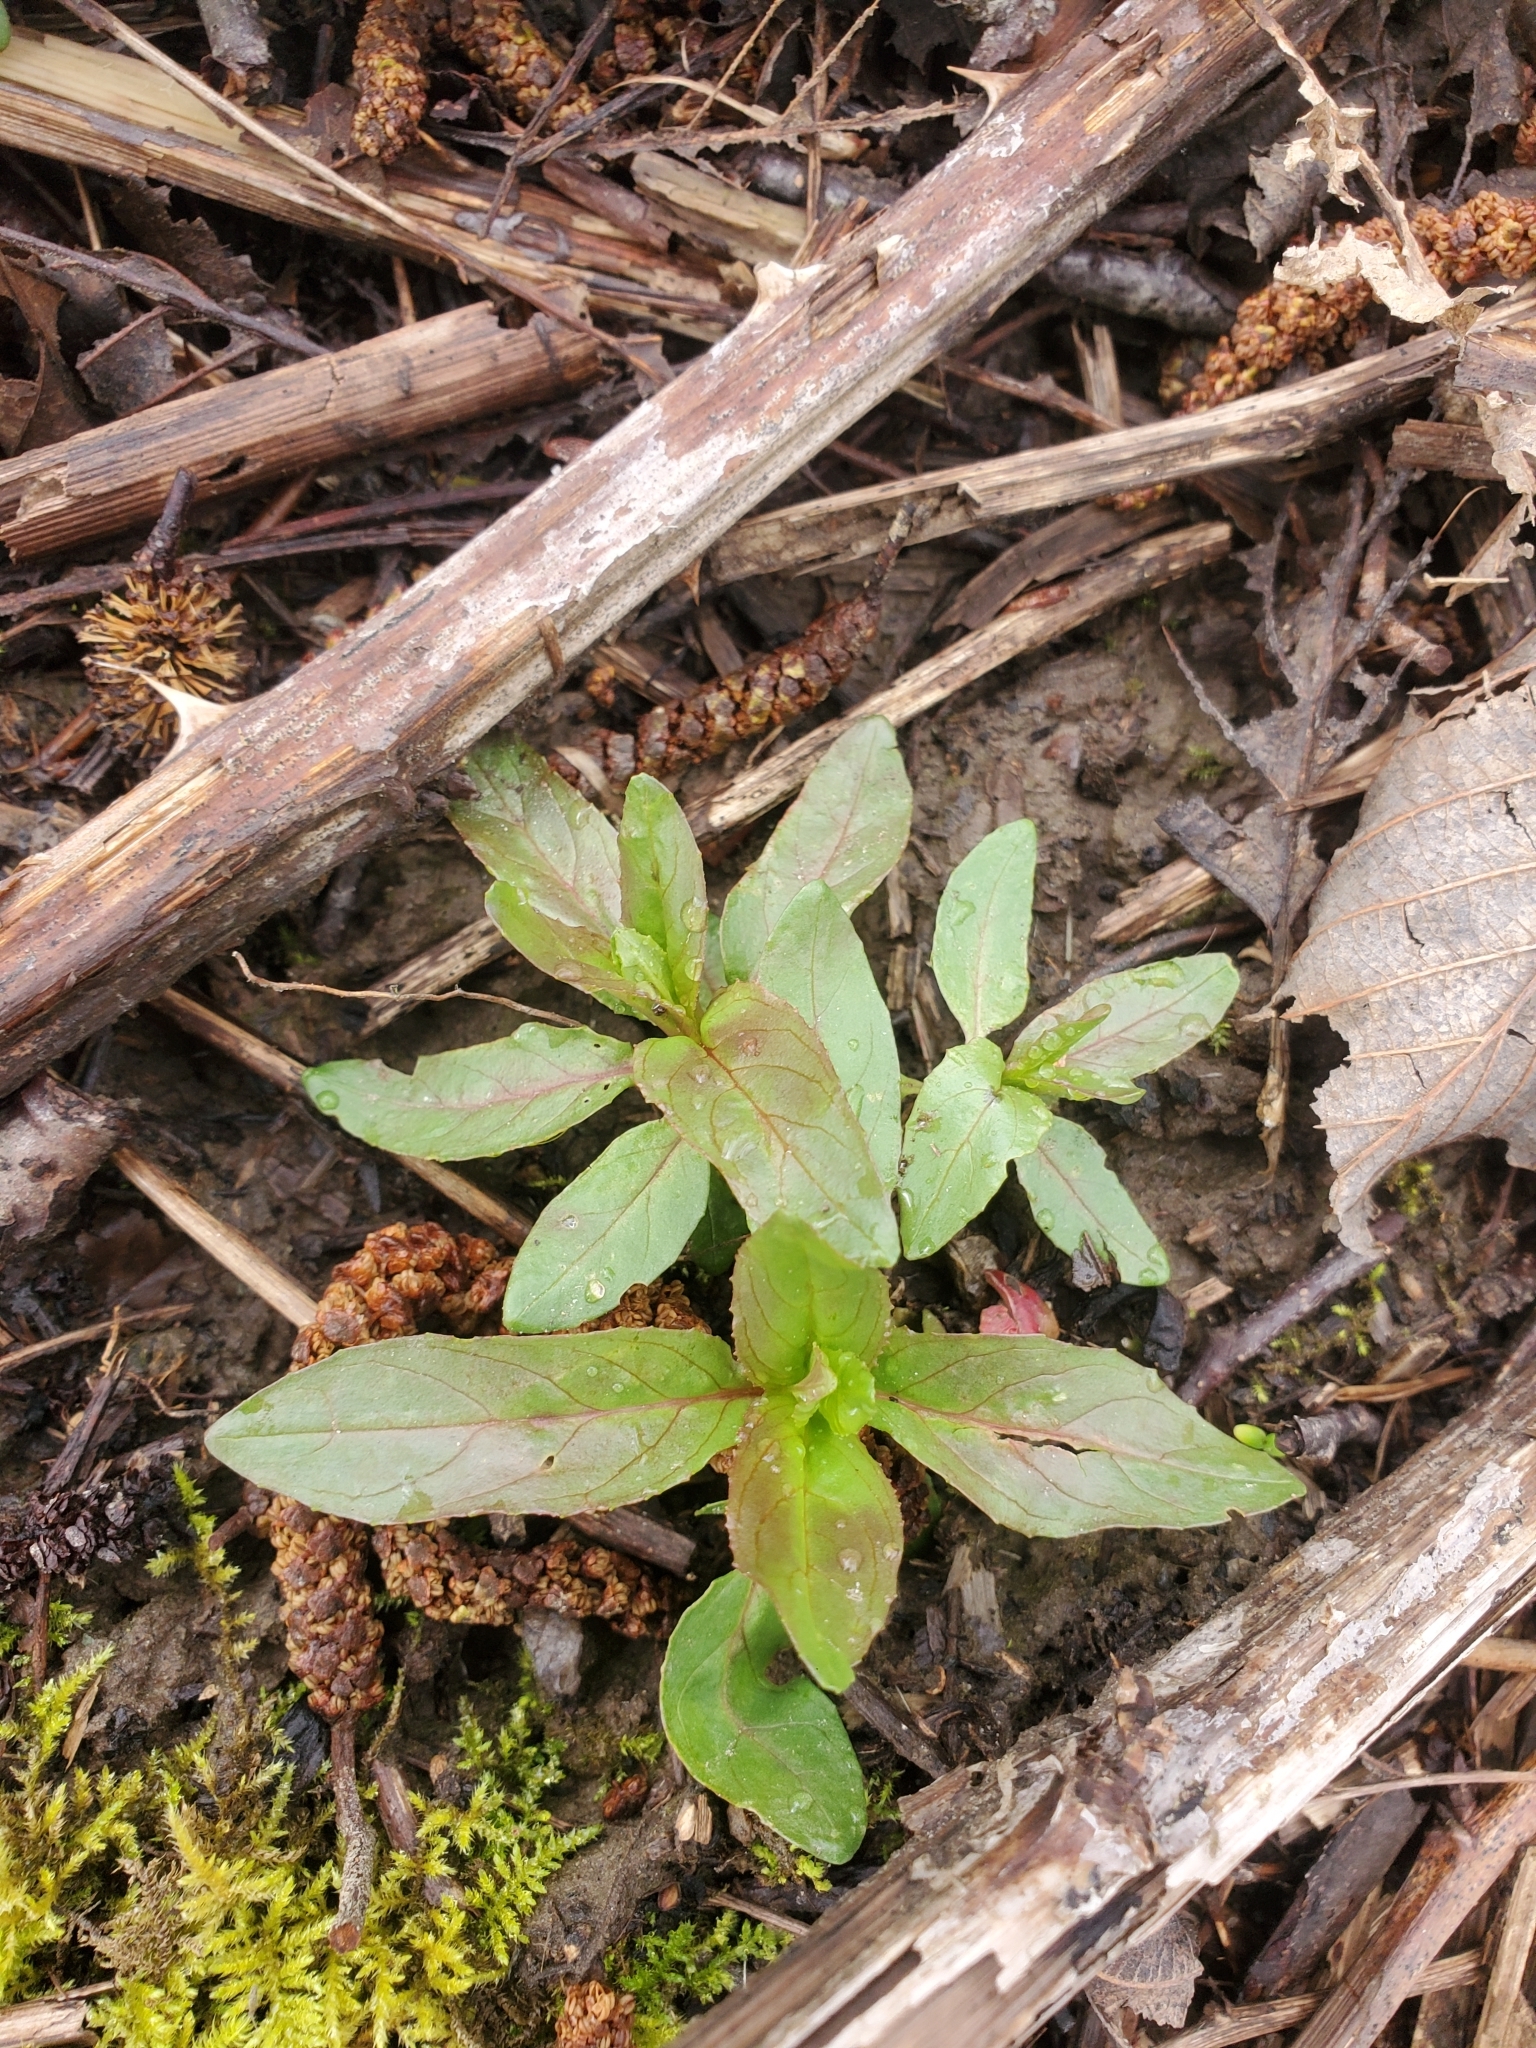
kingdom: Plantae
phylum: Tracheophyta
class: Magnoliopsida
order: Myrtales
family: Onagraceae
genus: Epilobium
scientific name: Epilobium ciliatum
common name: American willowherb
